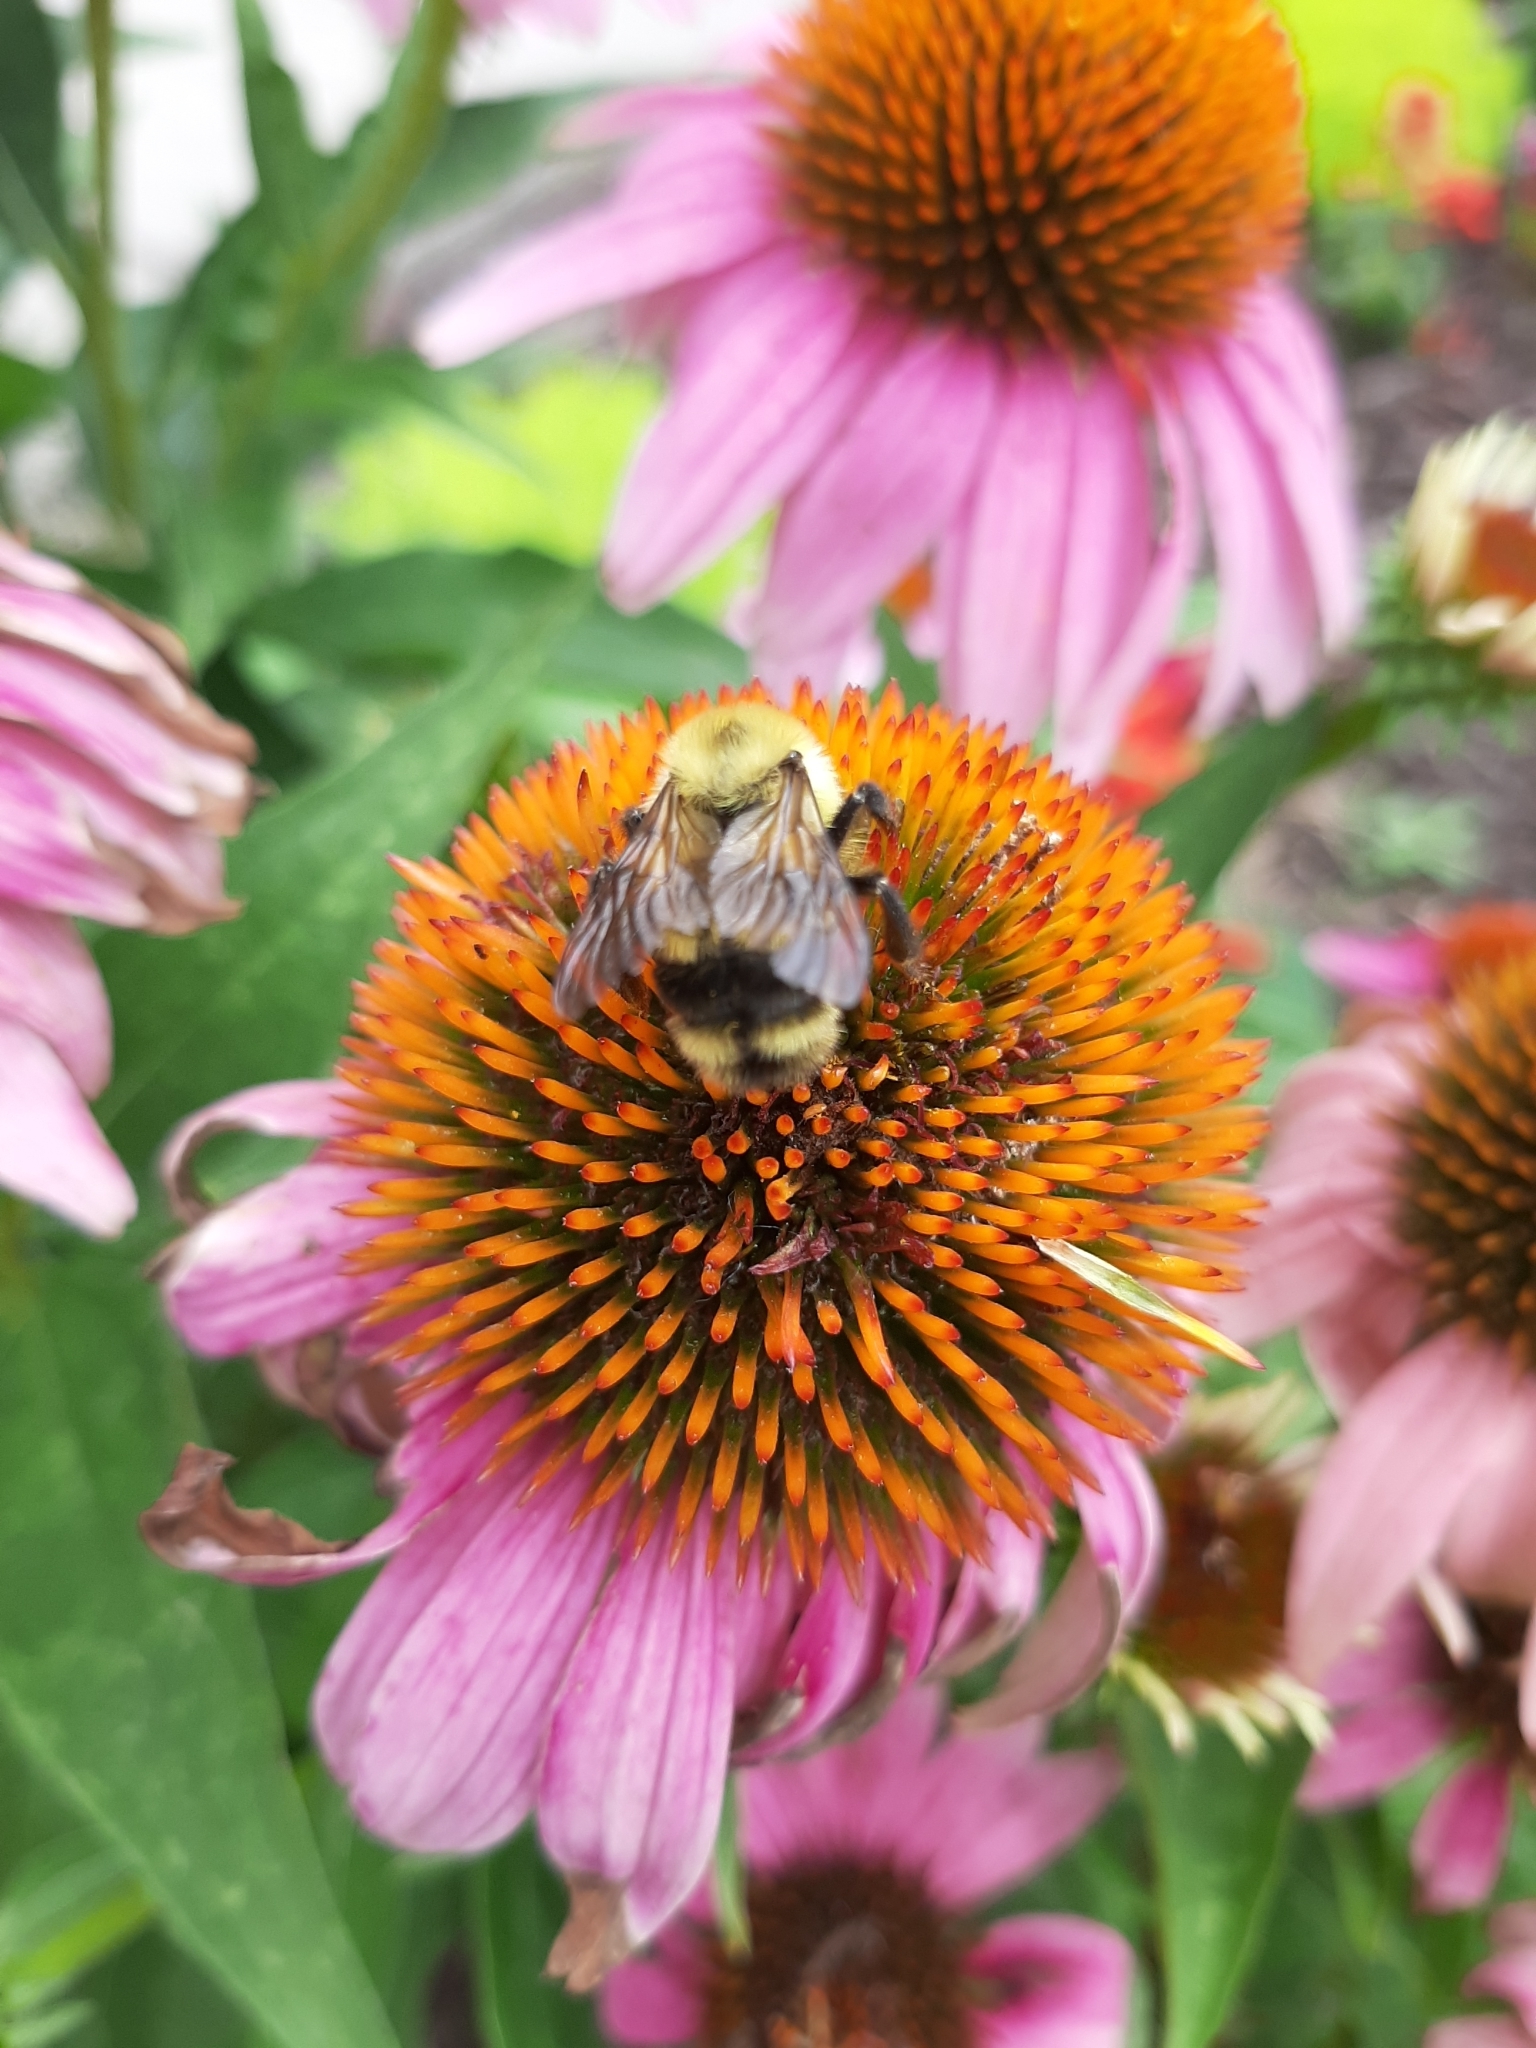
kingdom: Animalia
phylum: Arthropoda
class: Insecta
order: Hymenoptera
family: Apidae
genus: Bombus
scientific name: Bombus bimaculatus
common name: Two-spotted bumble bee
